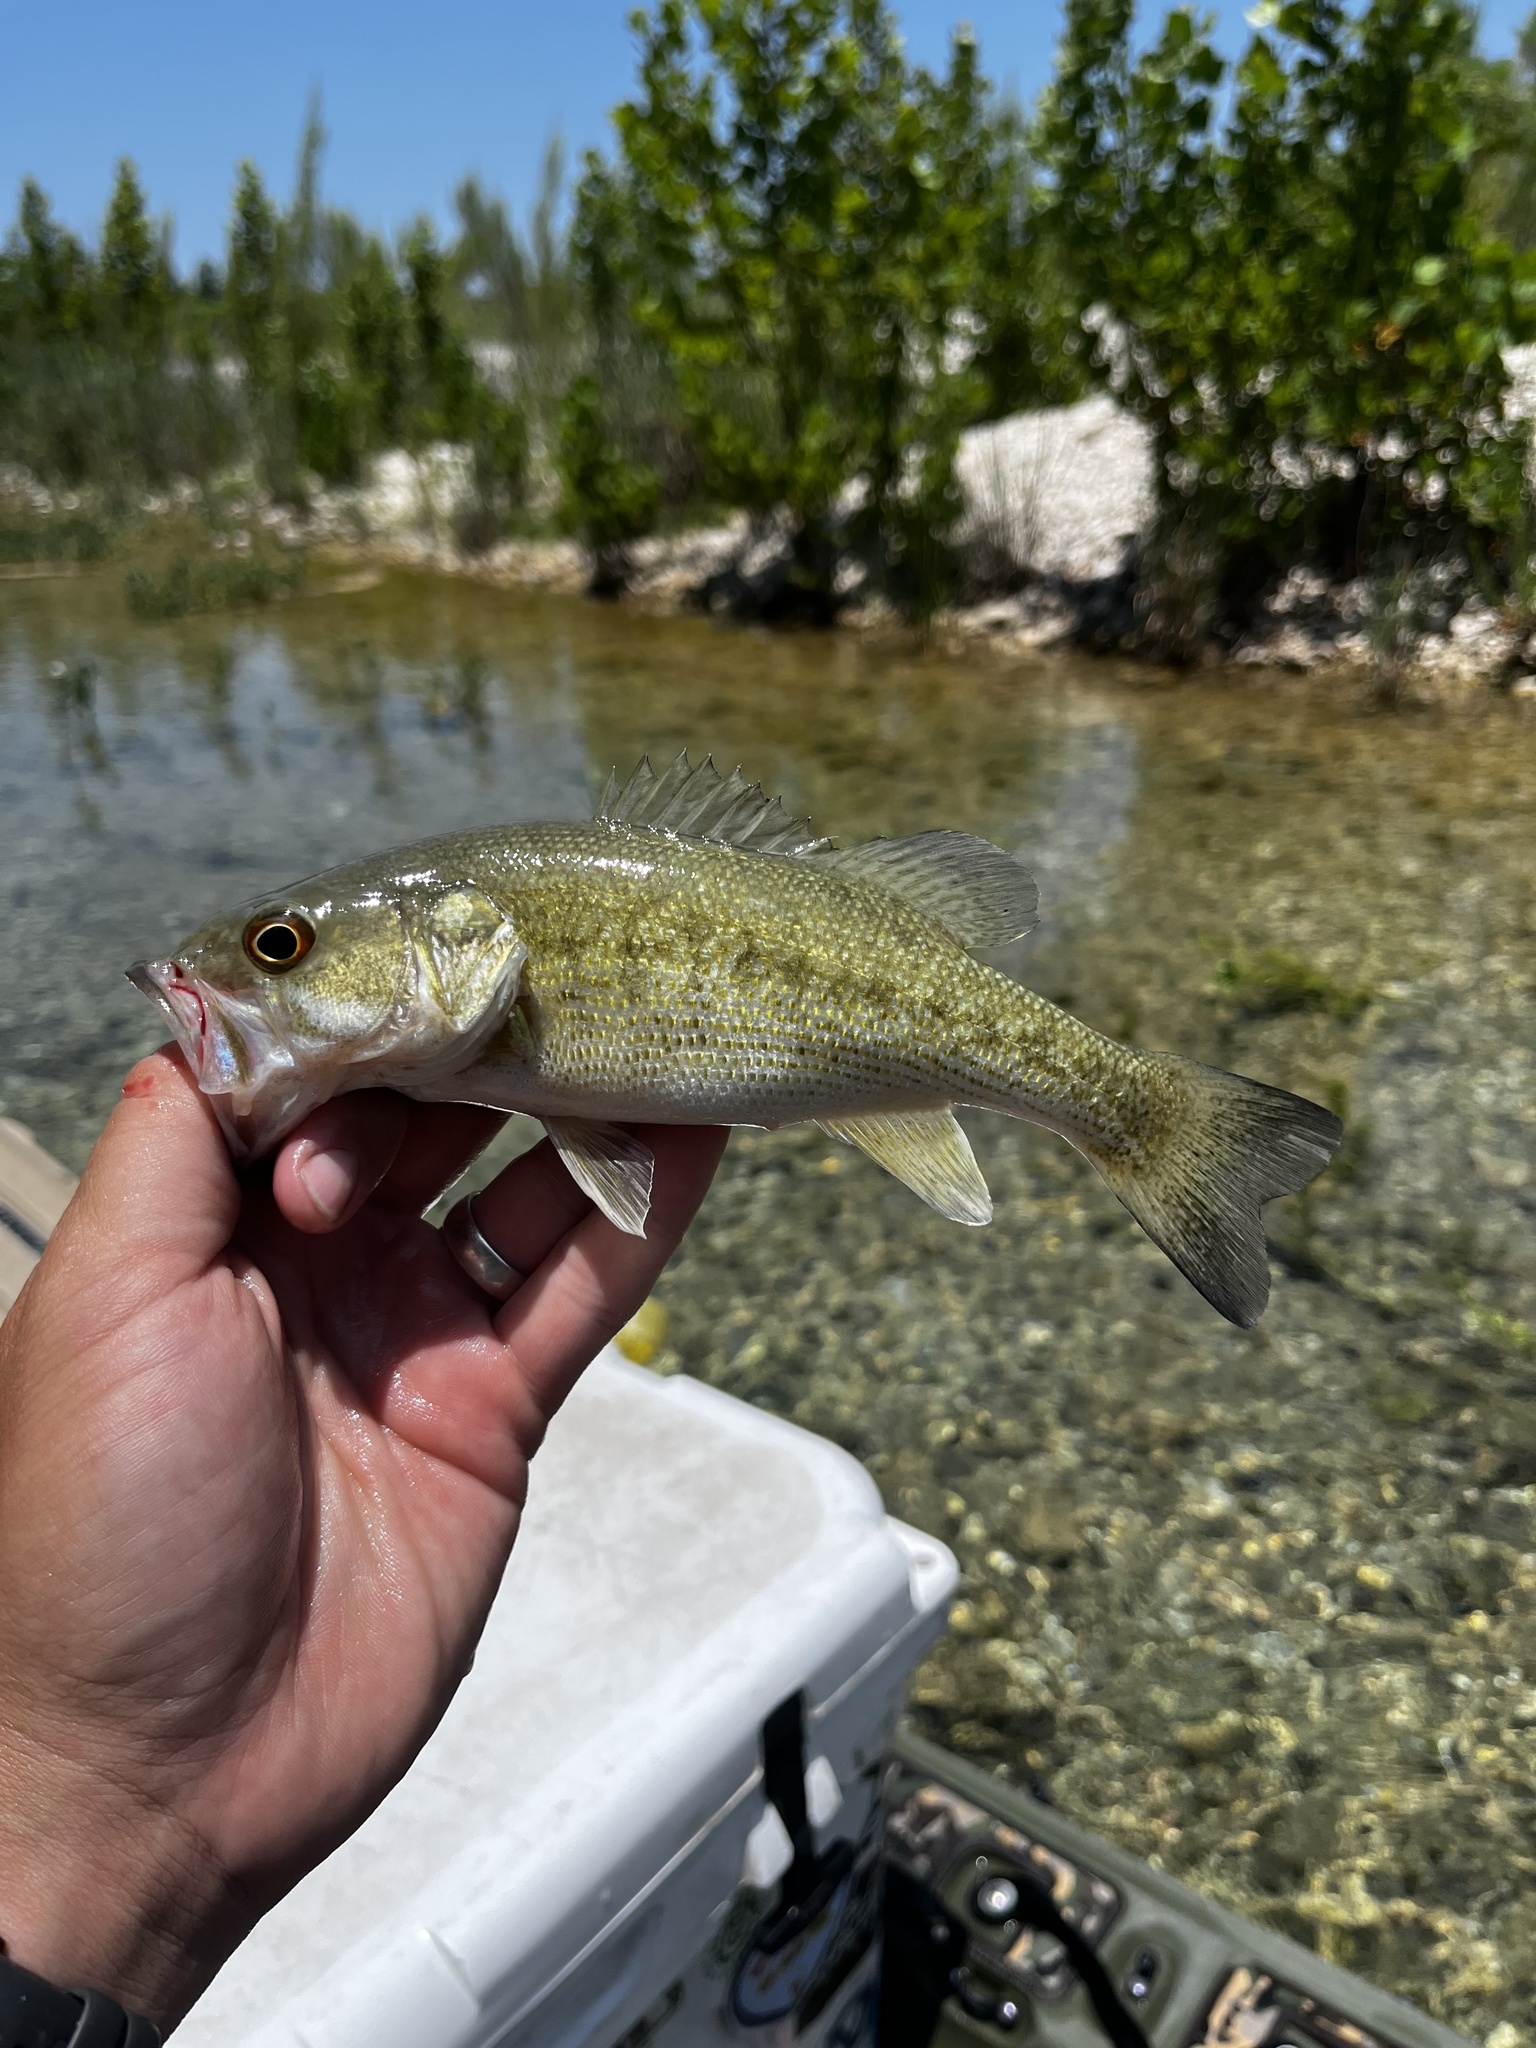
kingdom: Animalia
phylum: Chordata
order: Perciformes
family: Centrarchidae
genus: Micropterus
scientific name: Micropterus treculii
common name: Guadalupe bass
